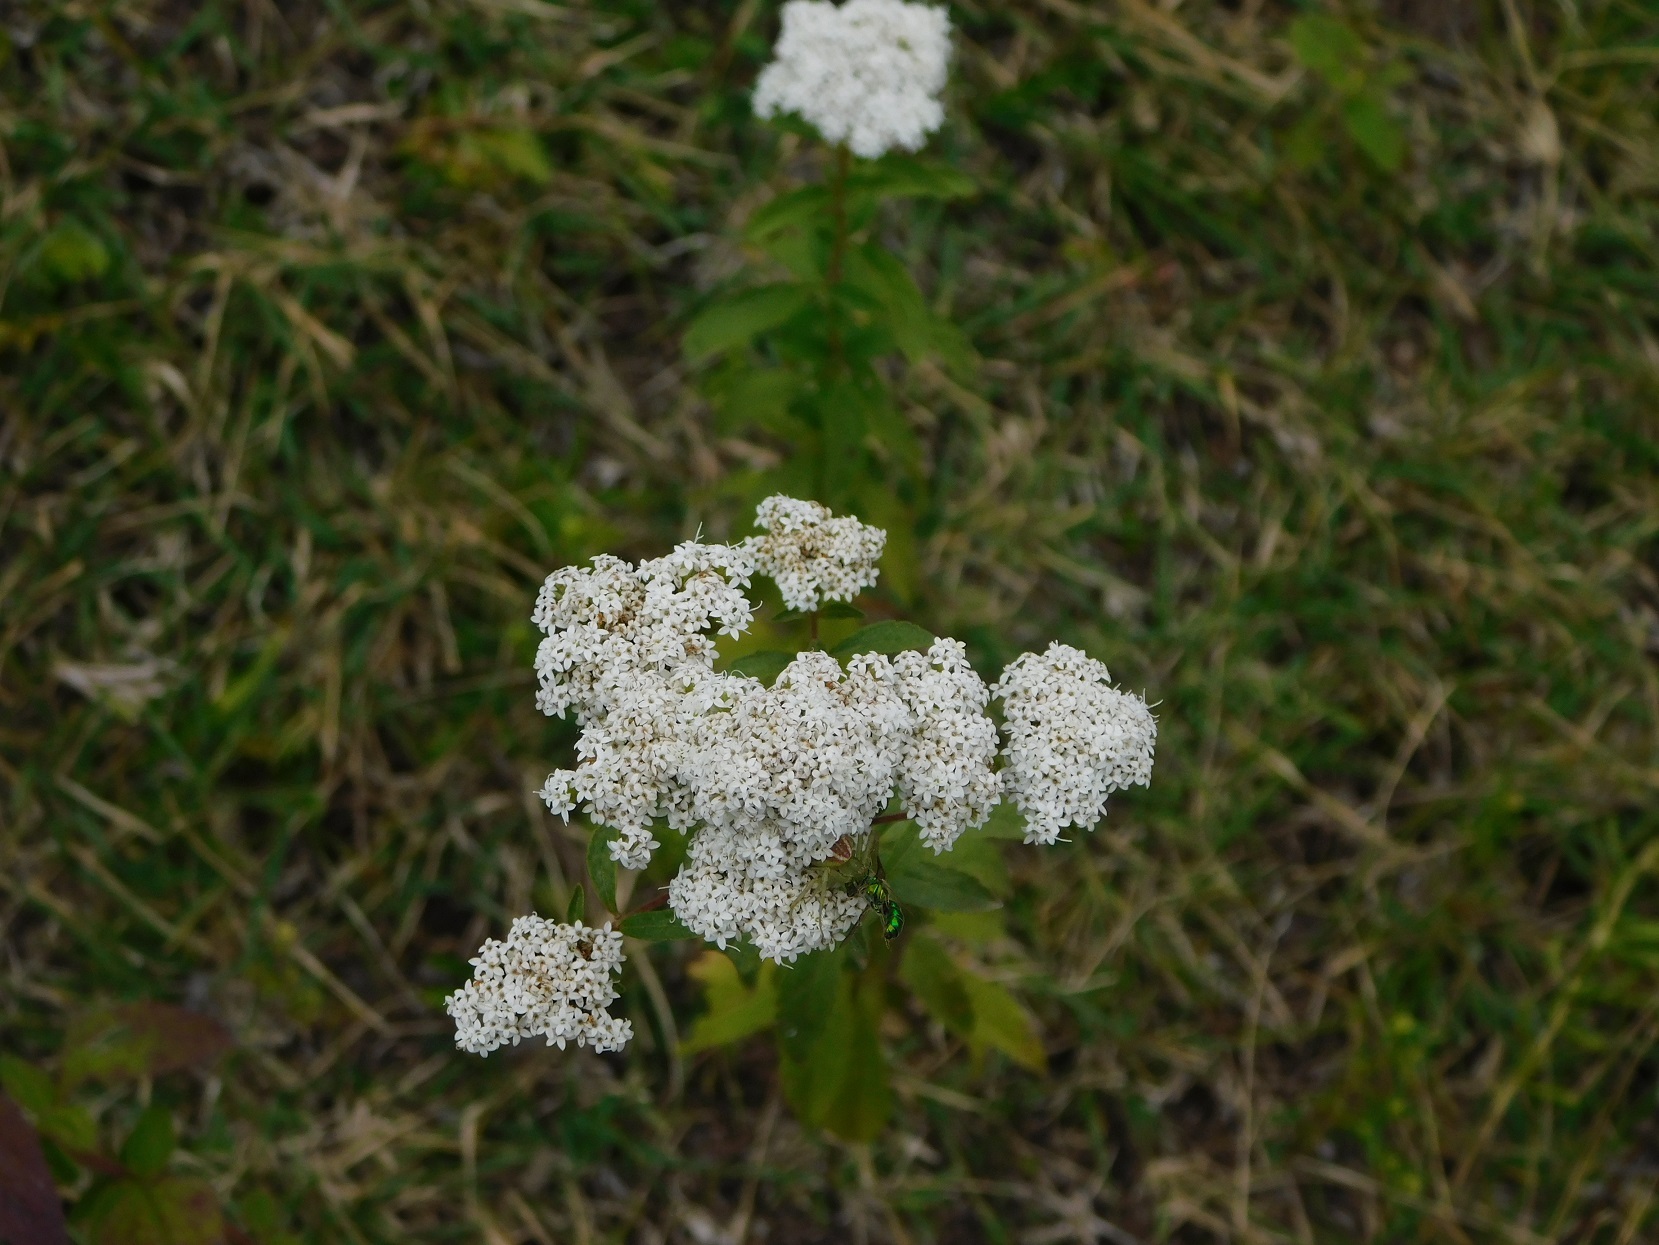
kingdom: Plantae
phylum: Tracheophyta
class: Magnoliopsida
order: Asterales
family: Asteraceae
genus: Stevia
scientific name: Stevia ovata
